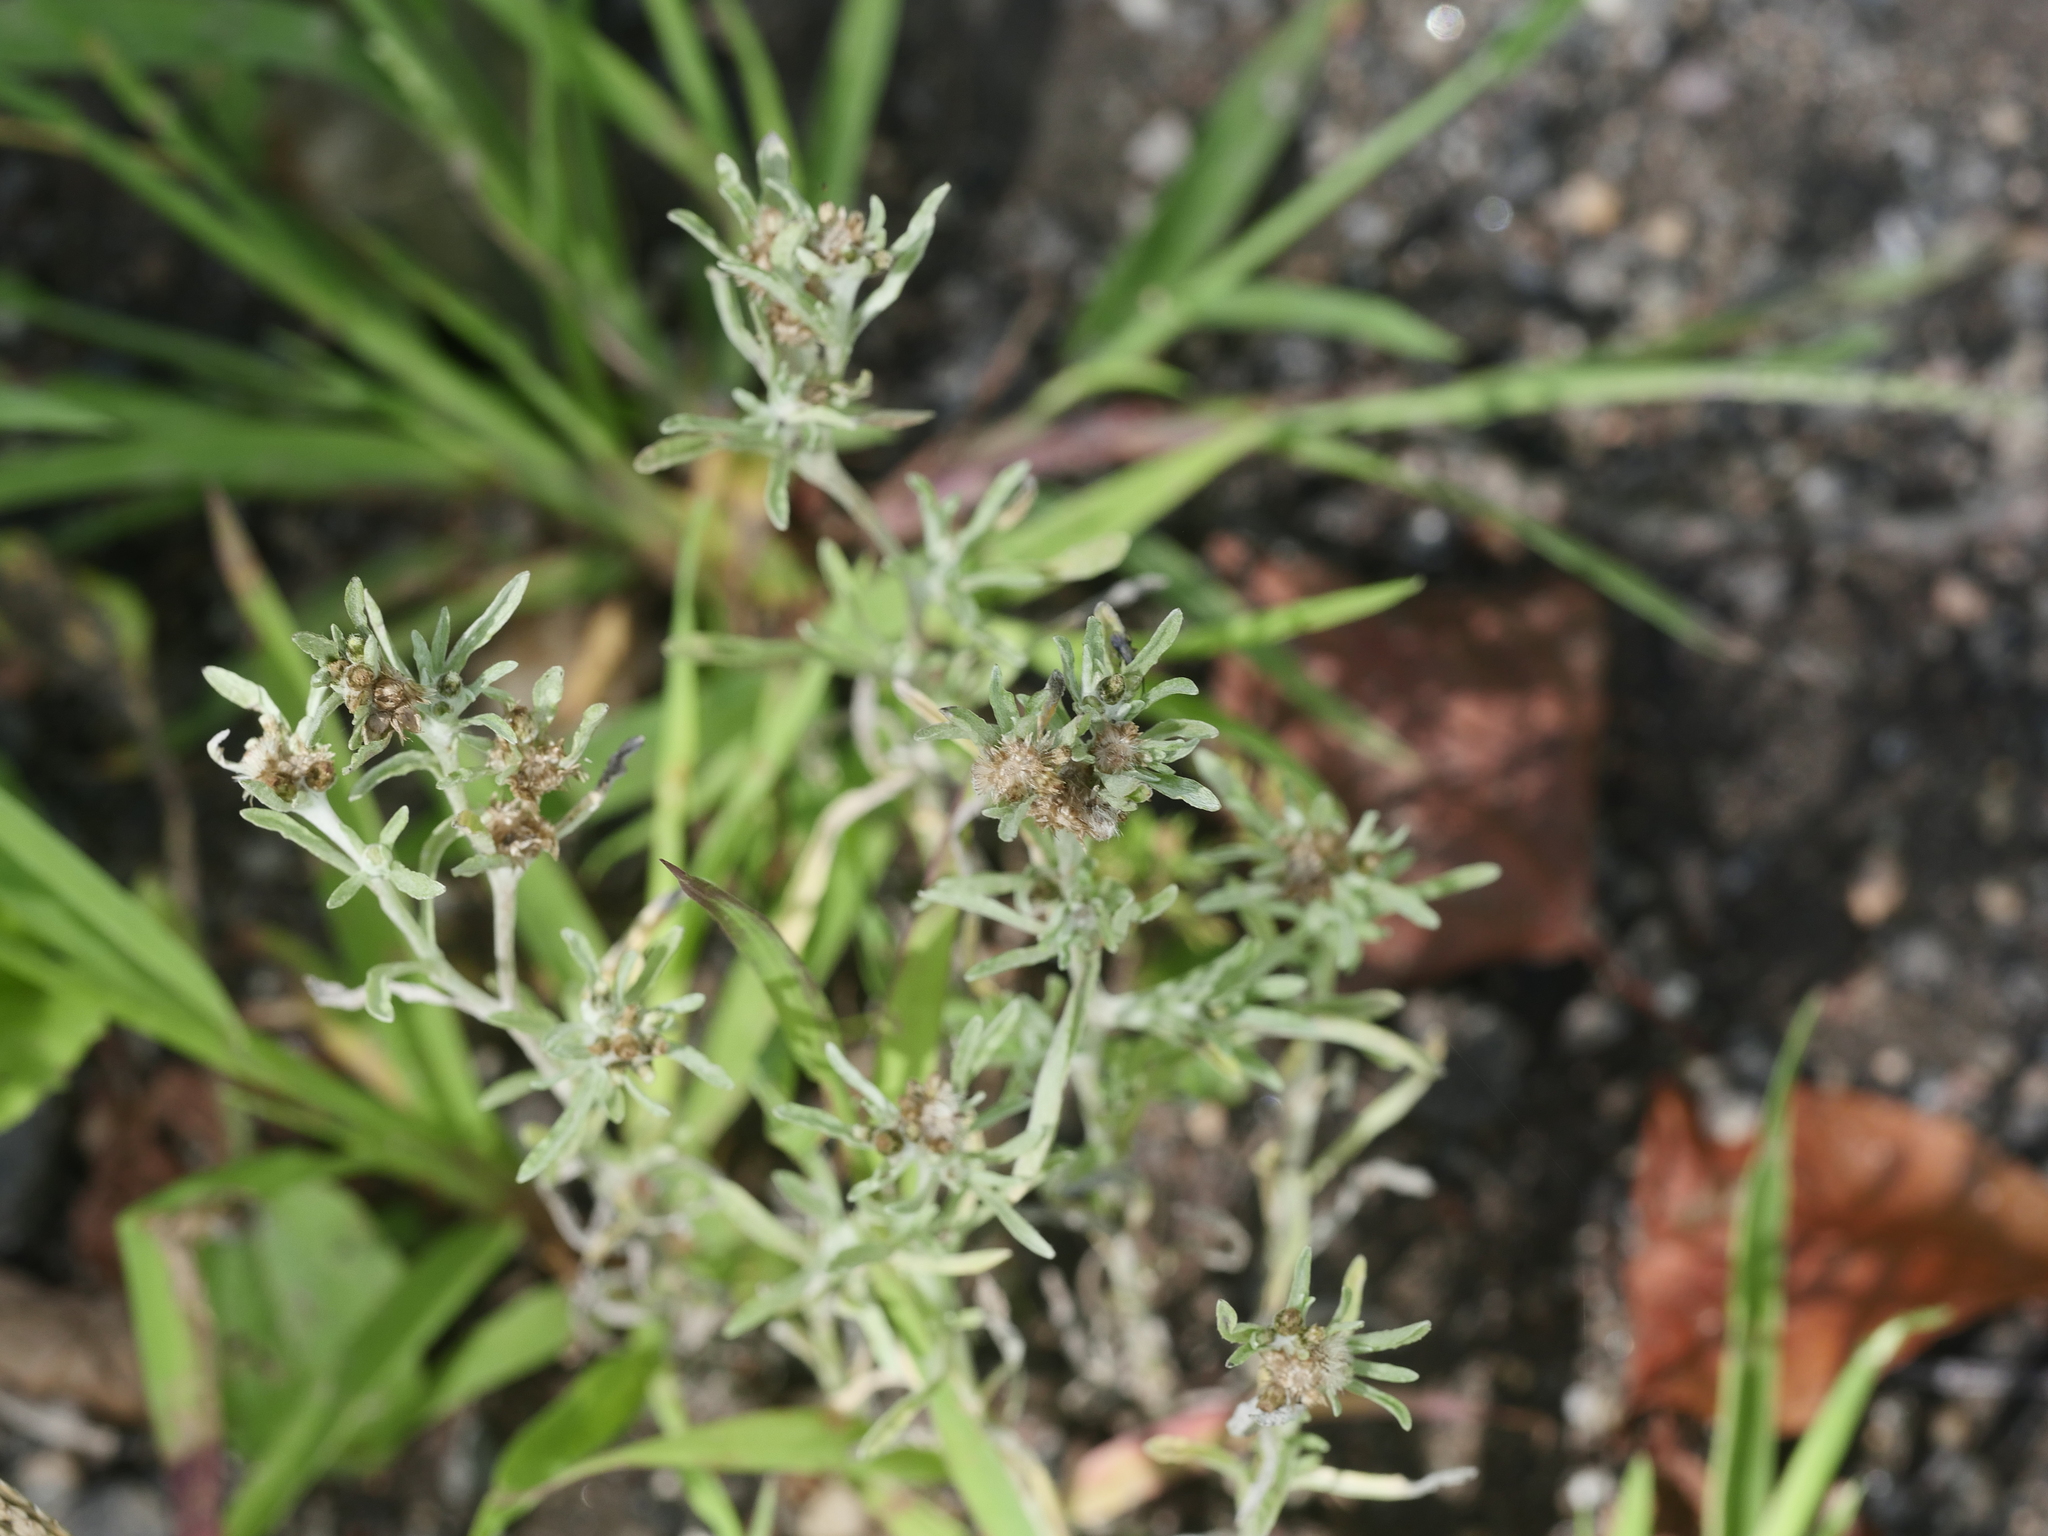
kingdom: Plantae
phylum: Tracheophyta
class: Magnoliopsida
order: Asterales
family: Asteraceae
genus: Gnaphalium
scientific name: Gnaphalium uliginosum
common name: Marsh cudweed
